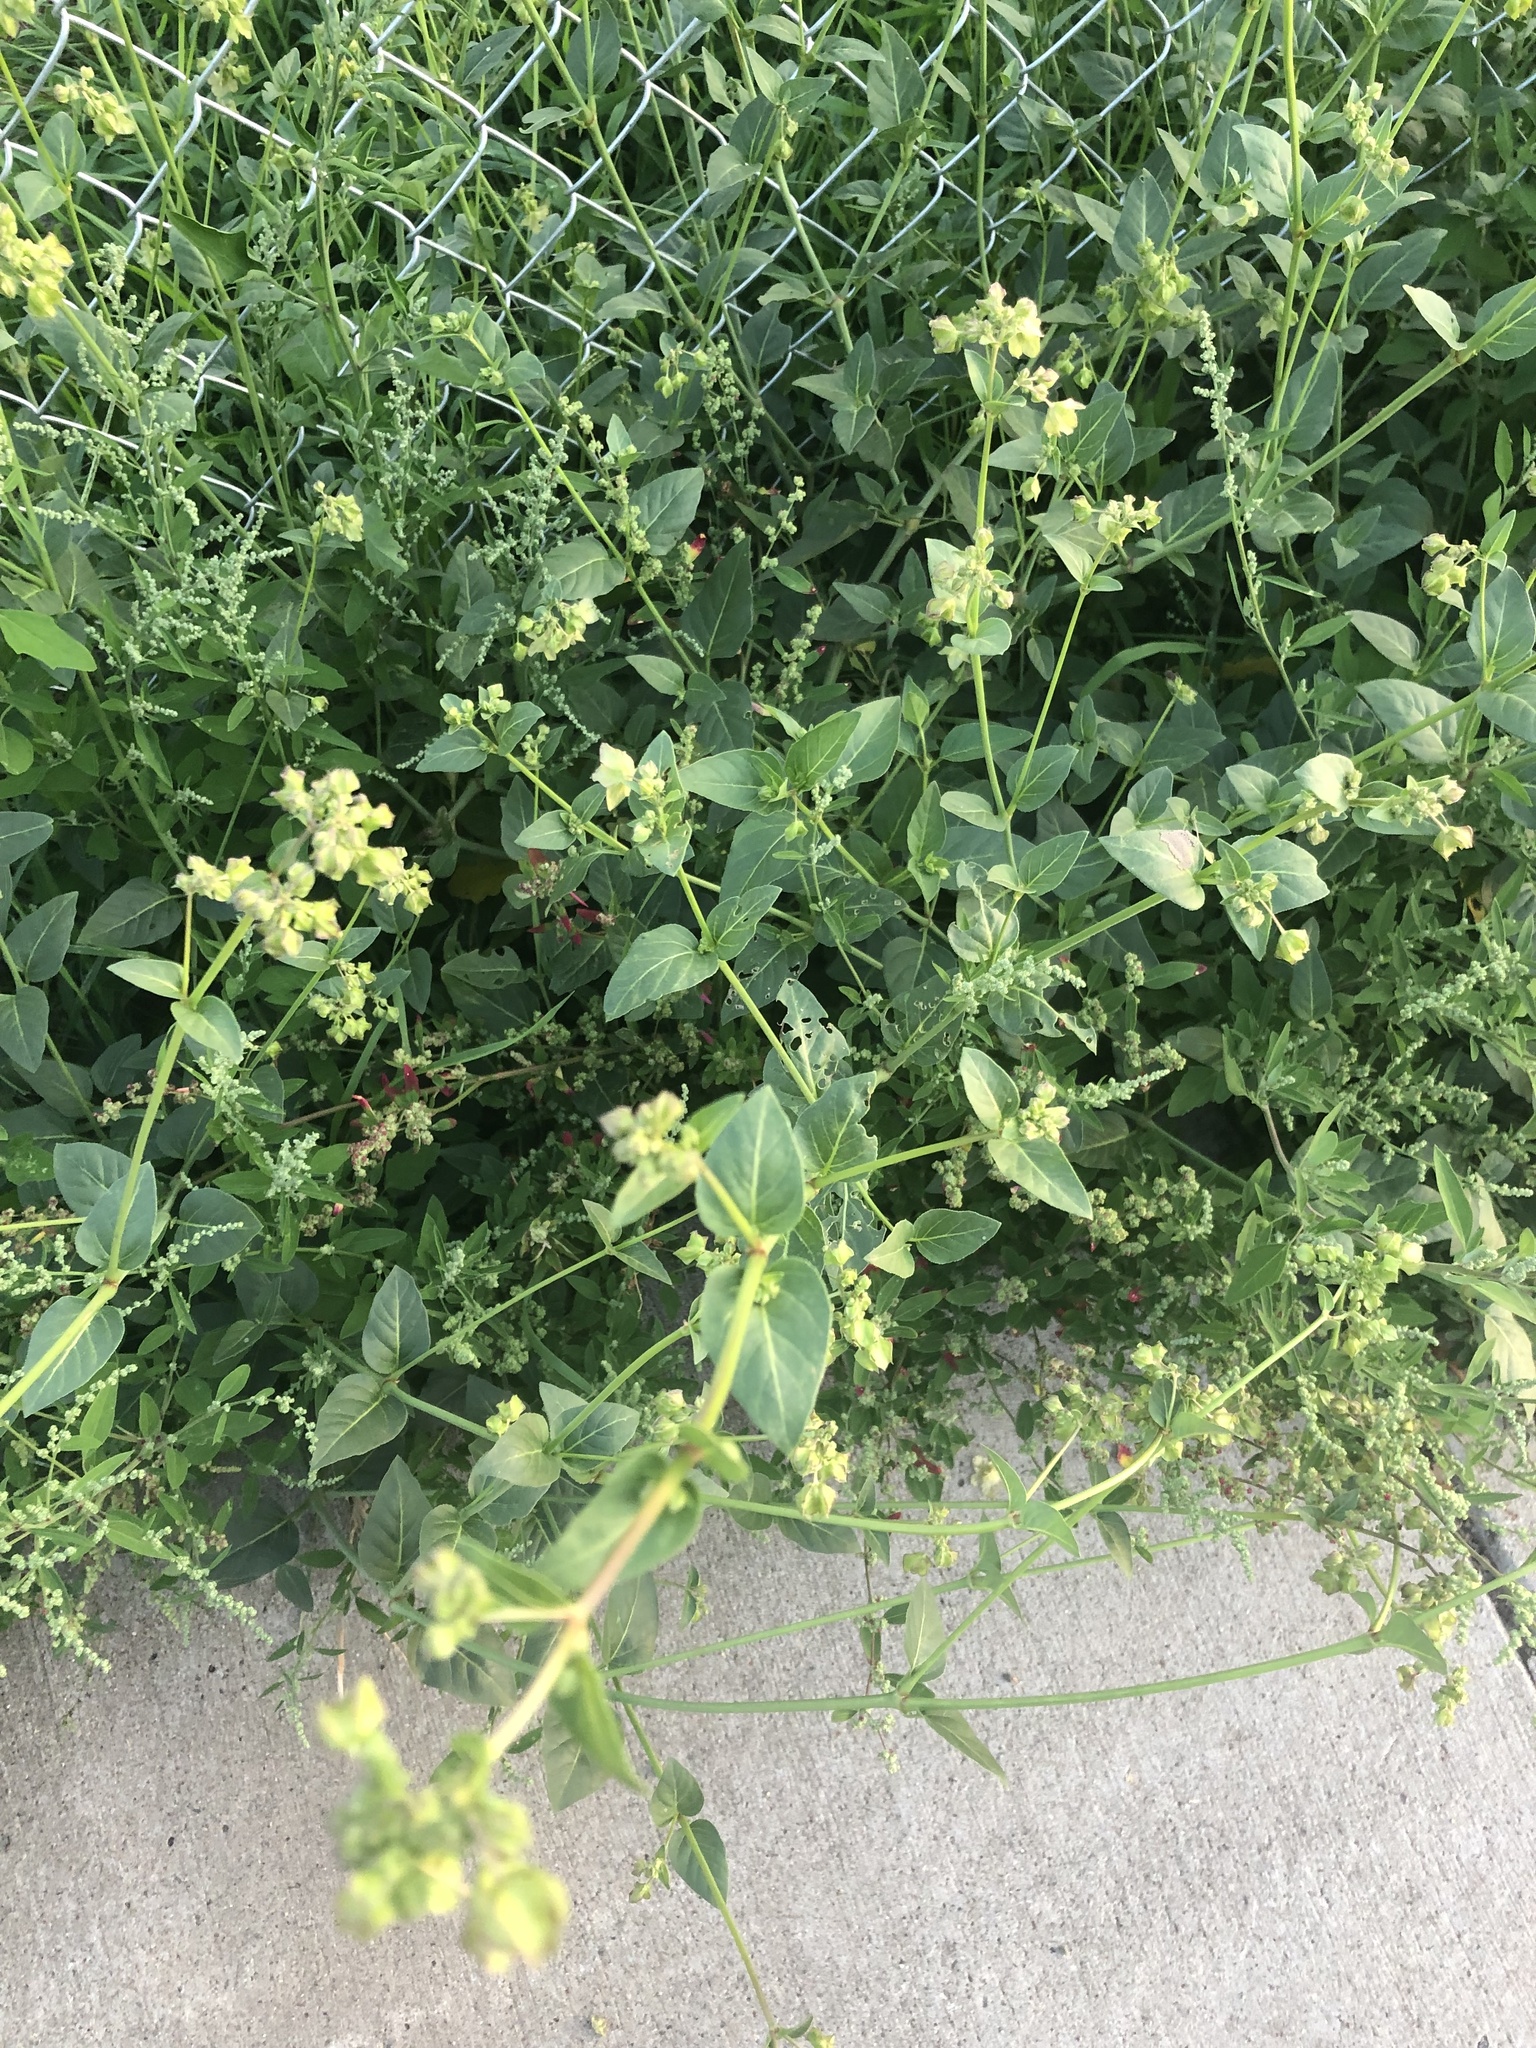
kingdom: Plantae
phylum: Tracheophyta
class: Magnoliopsida
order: Caryophyllales
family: Nyctaginaceae
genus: Mirabilis
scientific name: Mirabilis nyctaginea
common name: Umbrella wort
